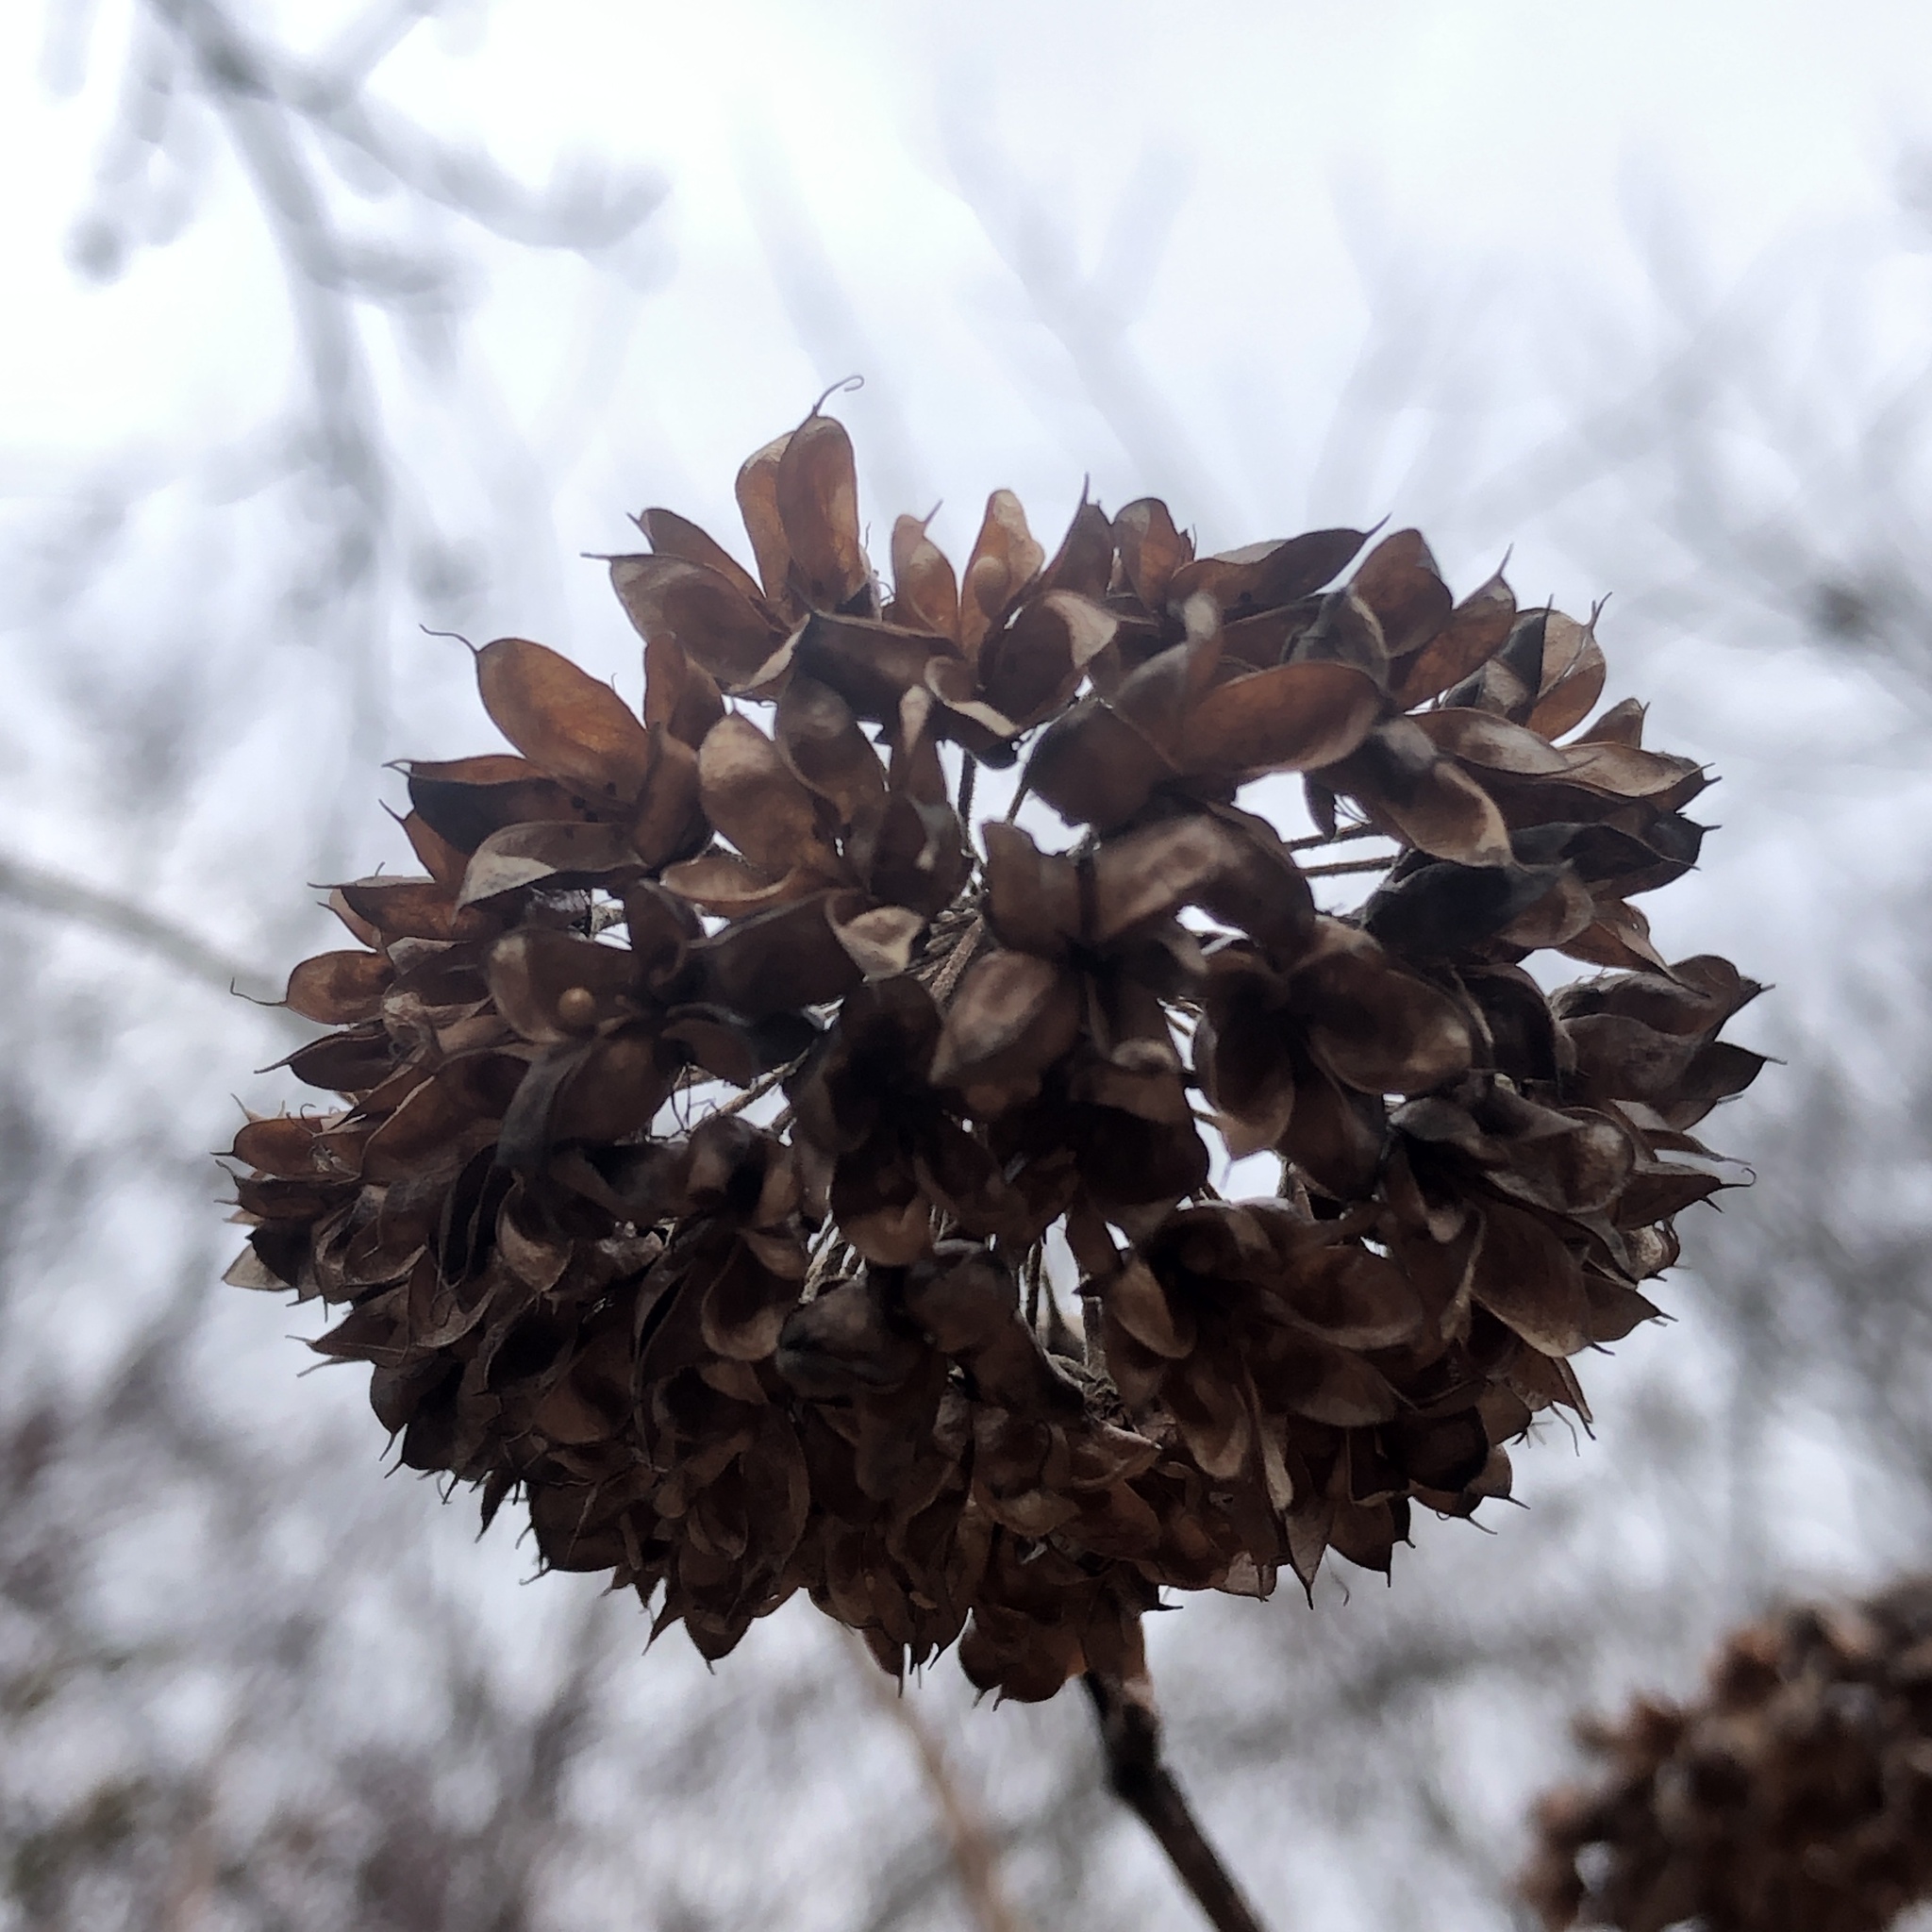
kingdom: Plantae
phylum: Tracheophyta
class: Magnoliopsida
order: Rosales
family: Rosaceae
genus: Physocarpus
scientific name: Physocarpus opulifolius
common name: Ninebark
